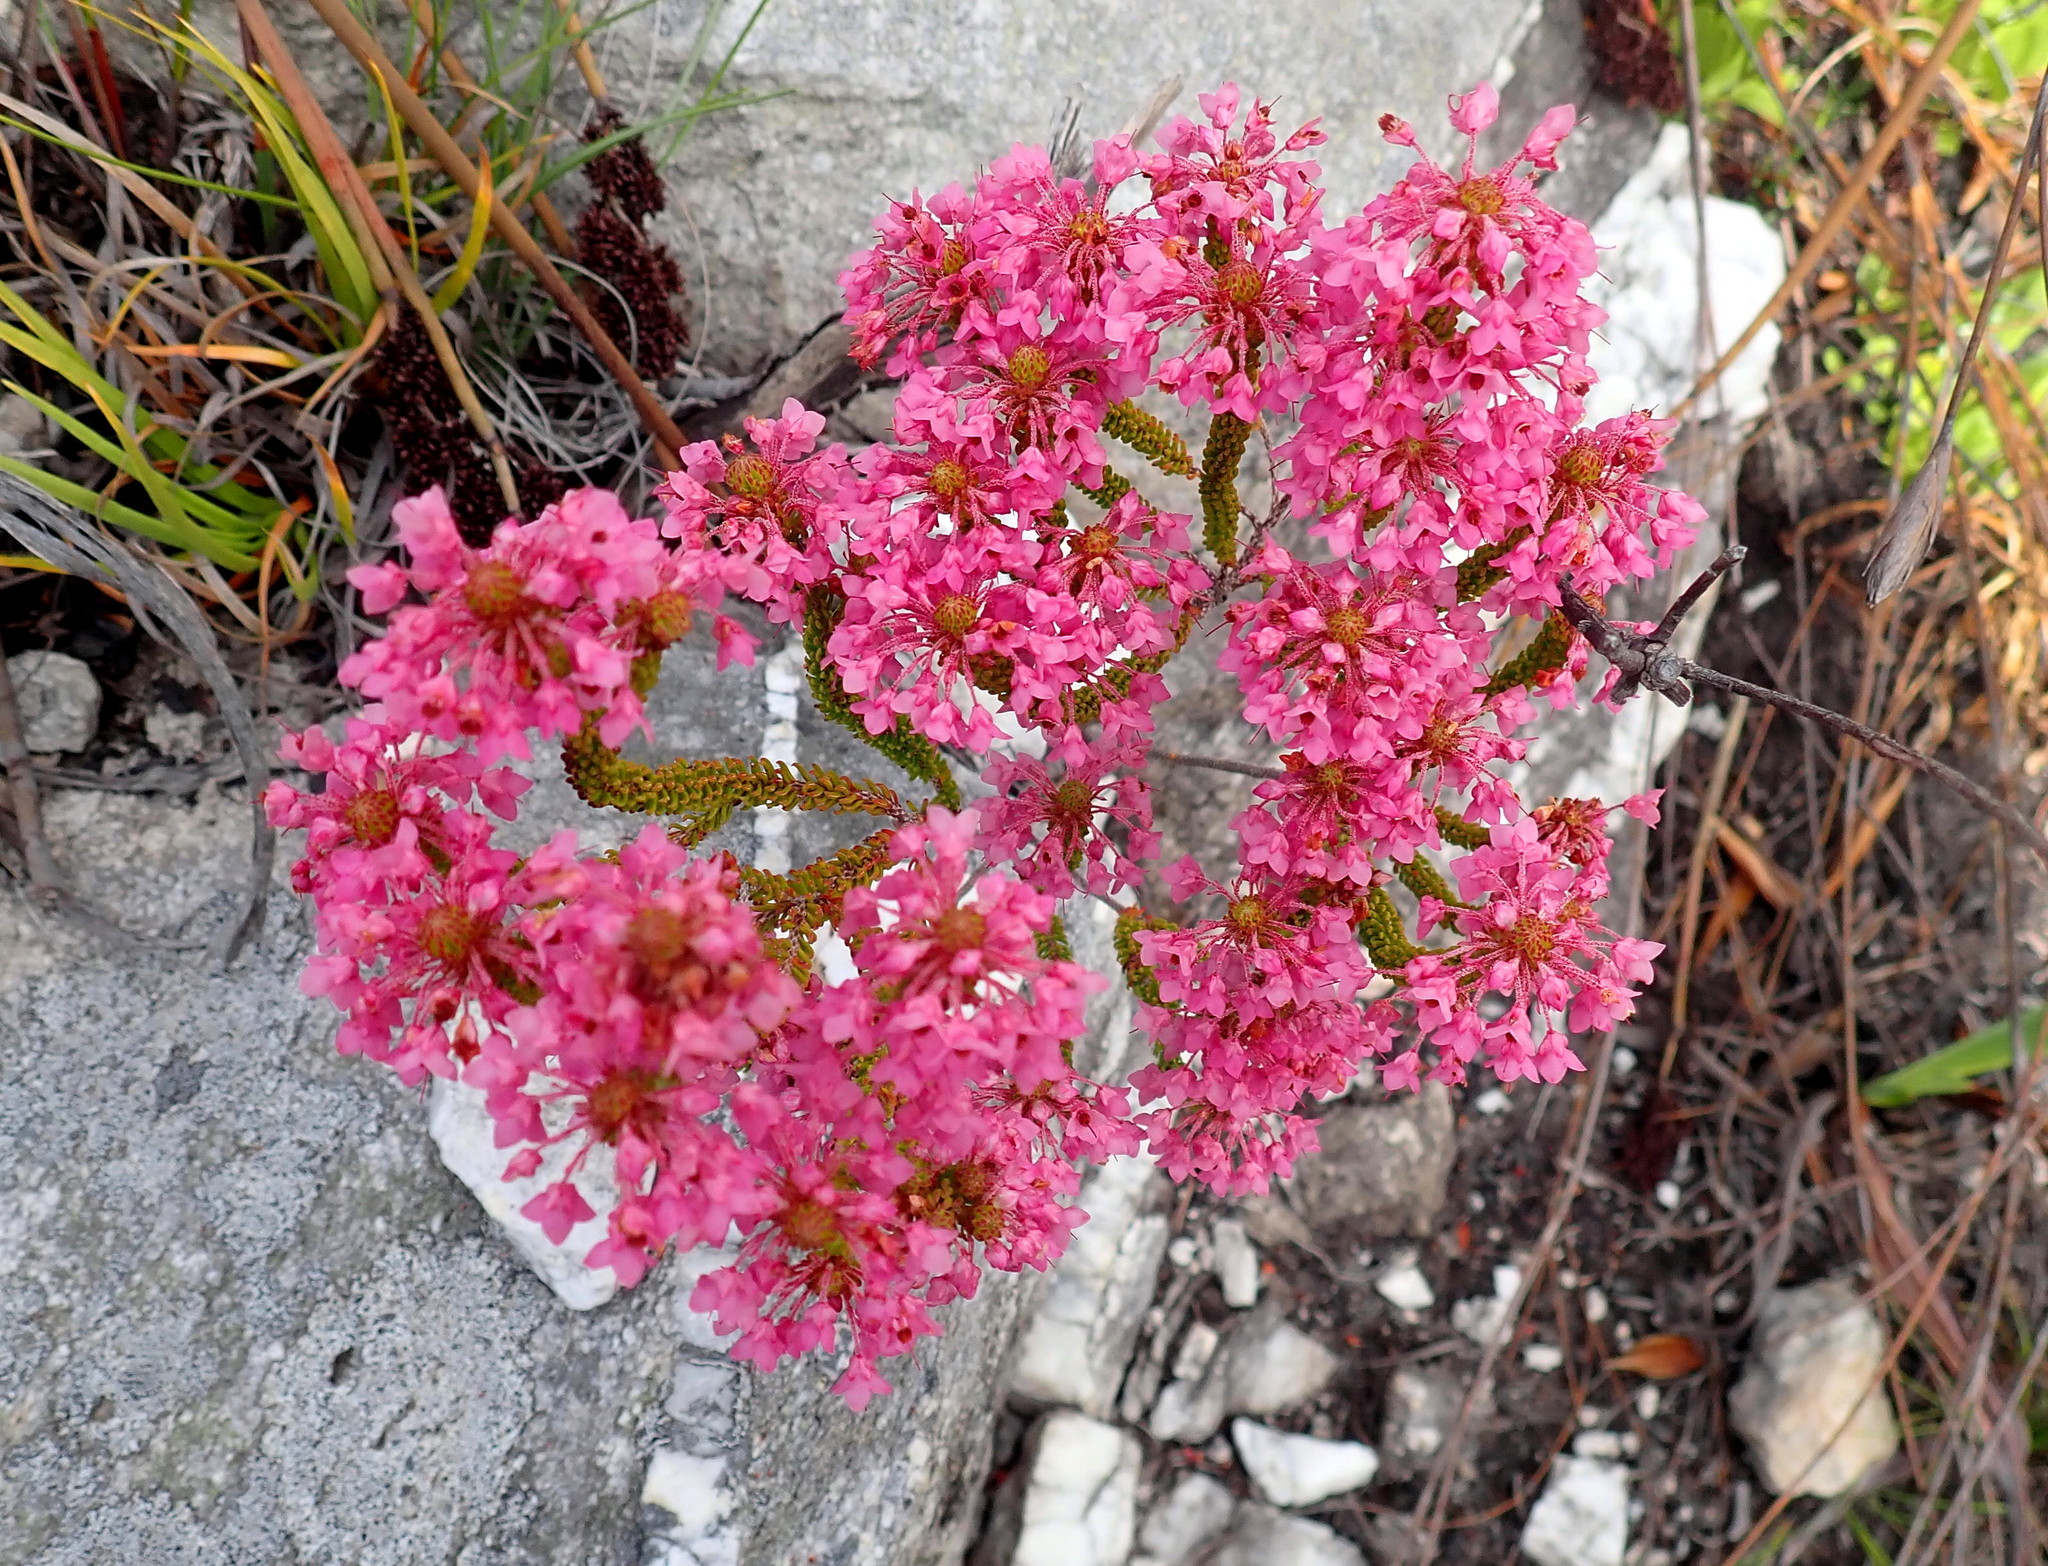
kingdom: Plantae
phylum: Tracheophyta
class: Magnoliopsida
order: Ericales
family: Ericaceae
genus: Erica
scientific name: Erica seriphiifolia
